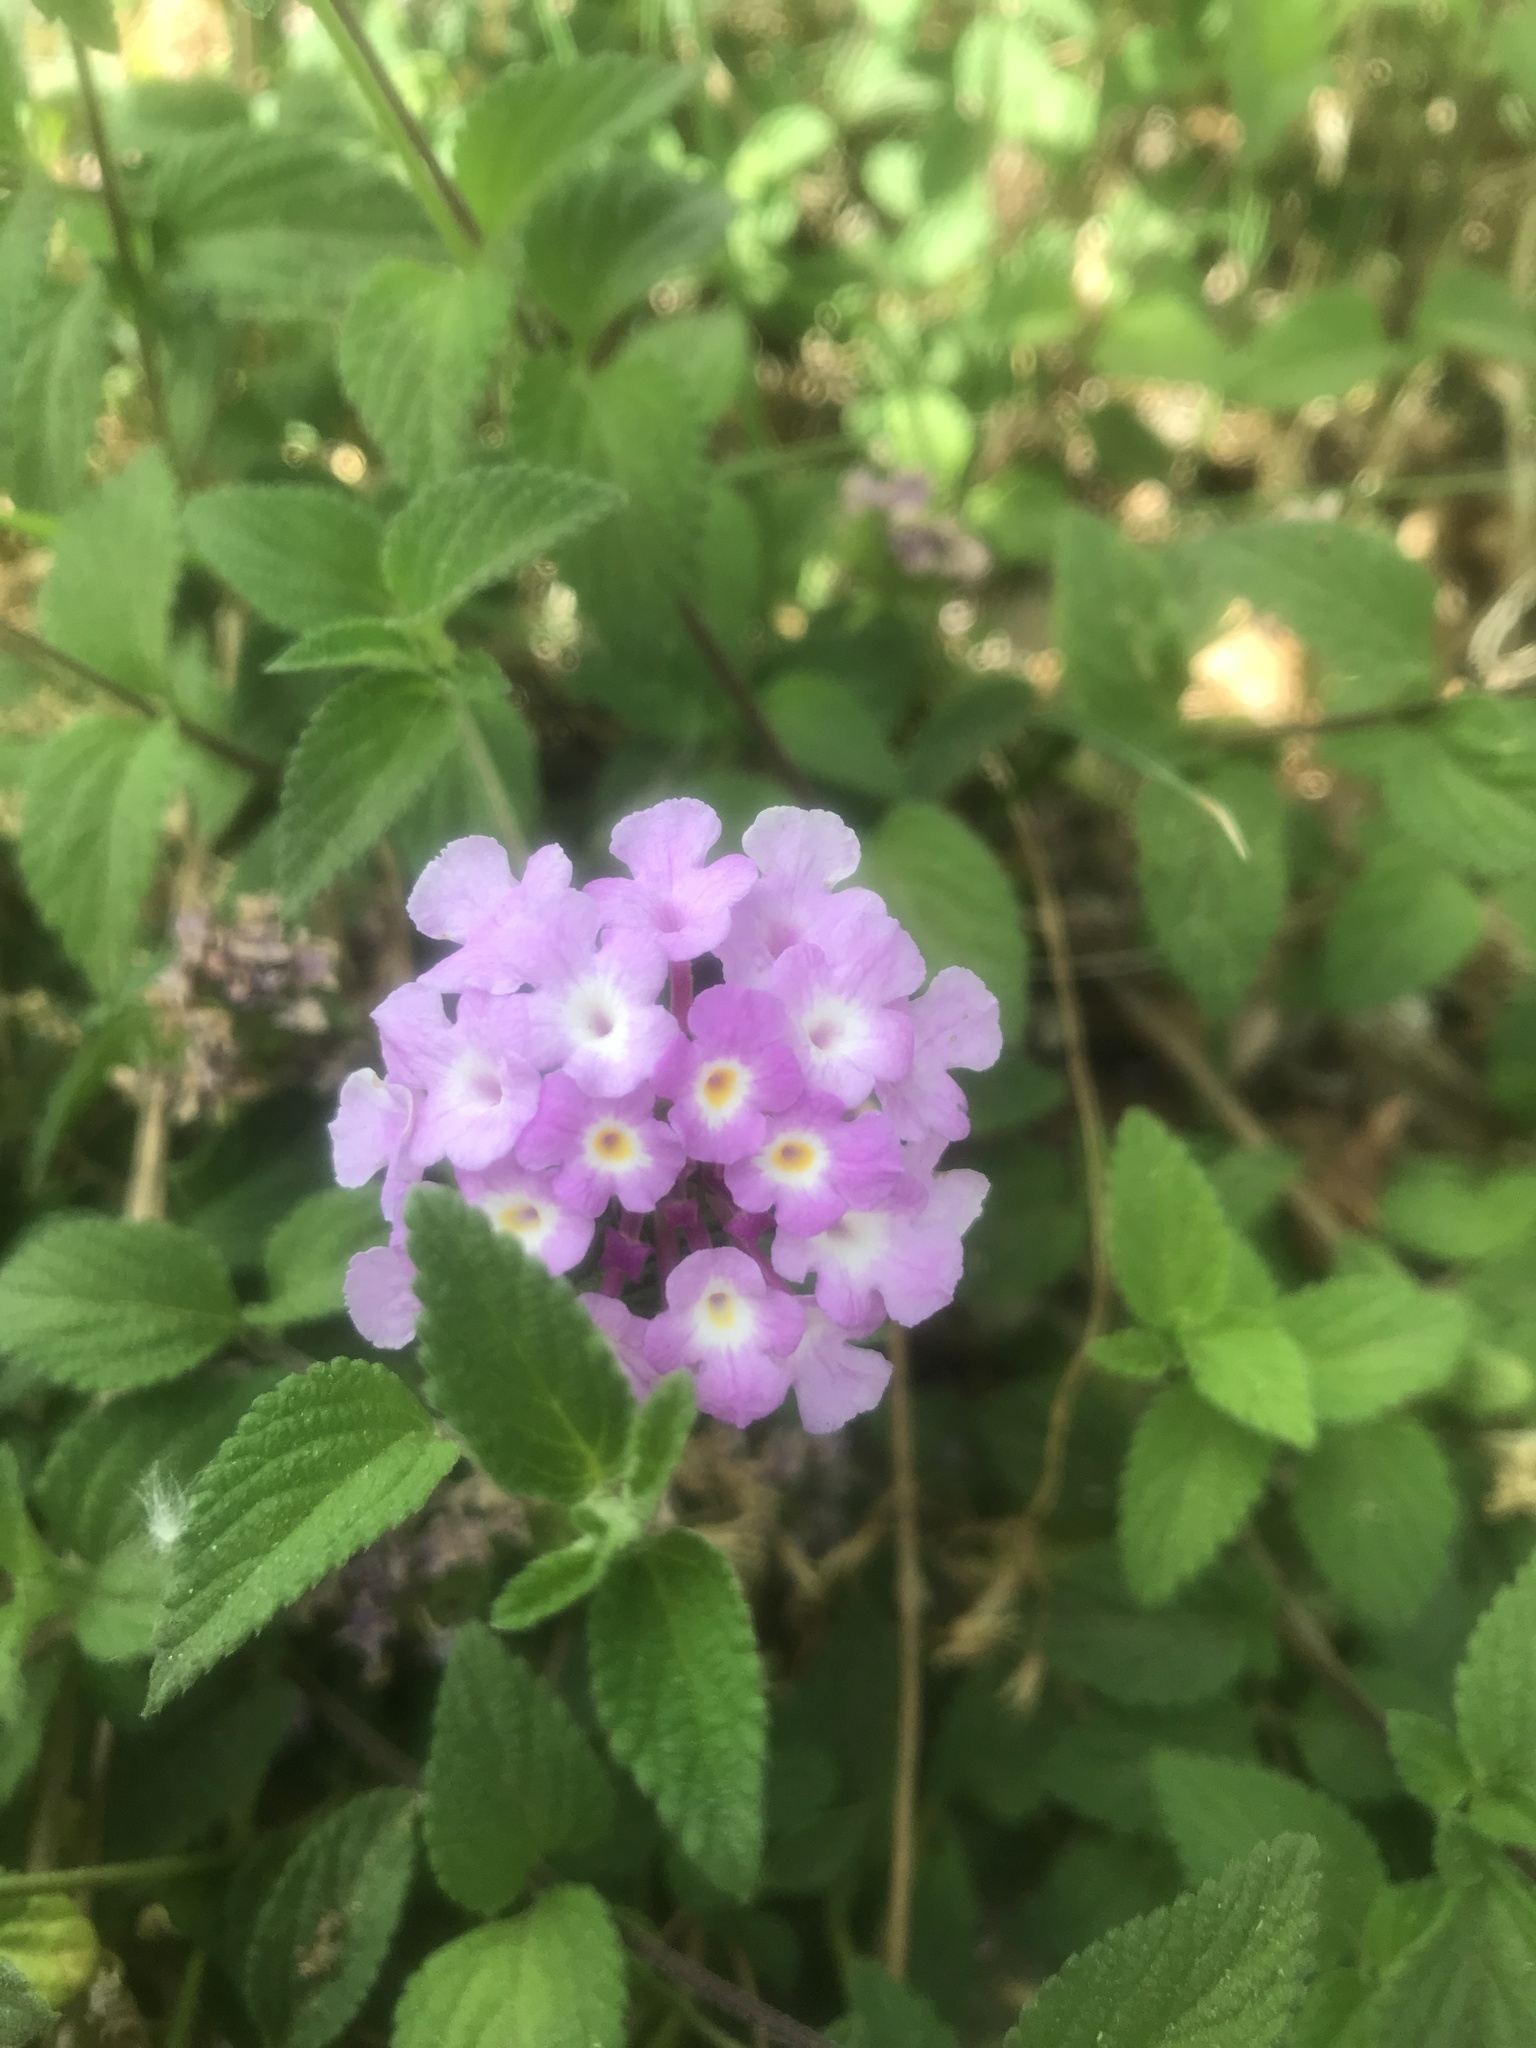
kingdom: Plantae
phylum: Tracheophyta
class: Magnoliopsida
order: Lamiales
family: Verbenaceae
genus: Lantana
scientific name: Lantana montevidensis
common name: Trailing shrubverbena
